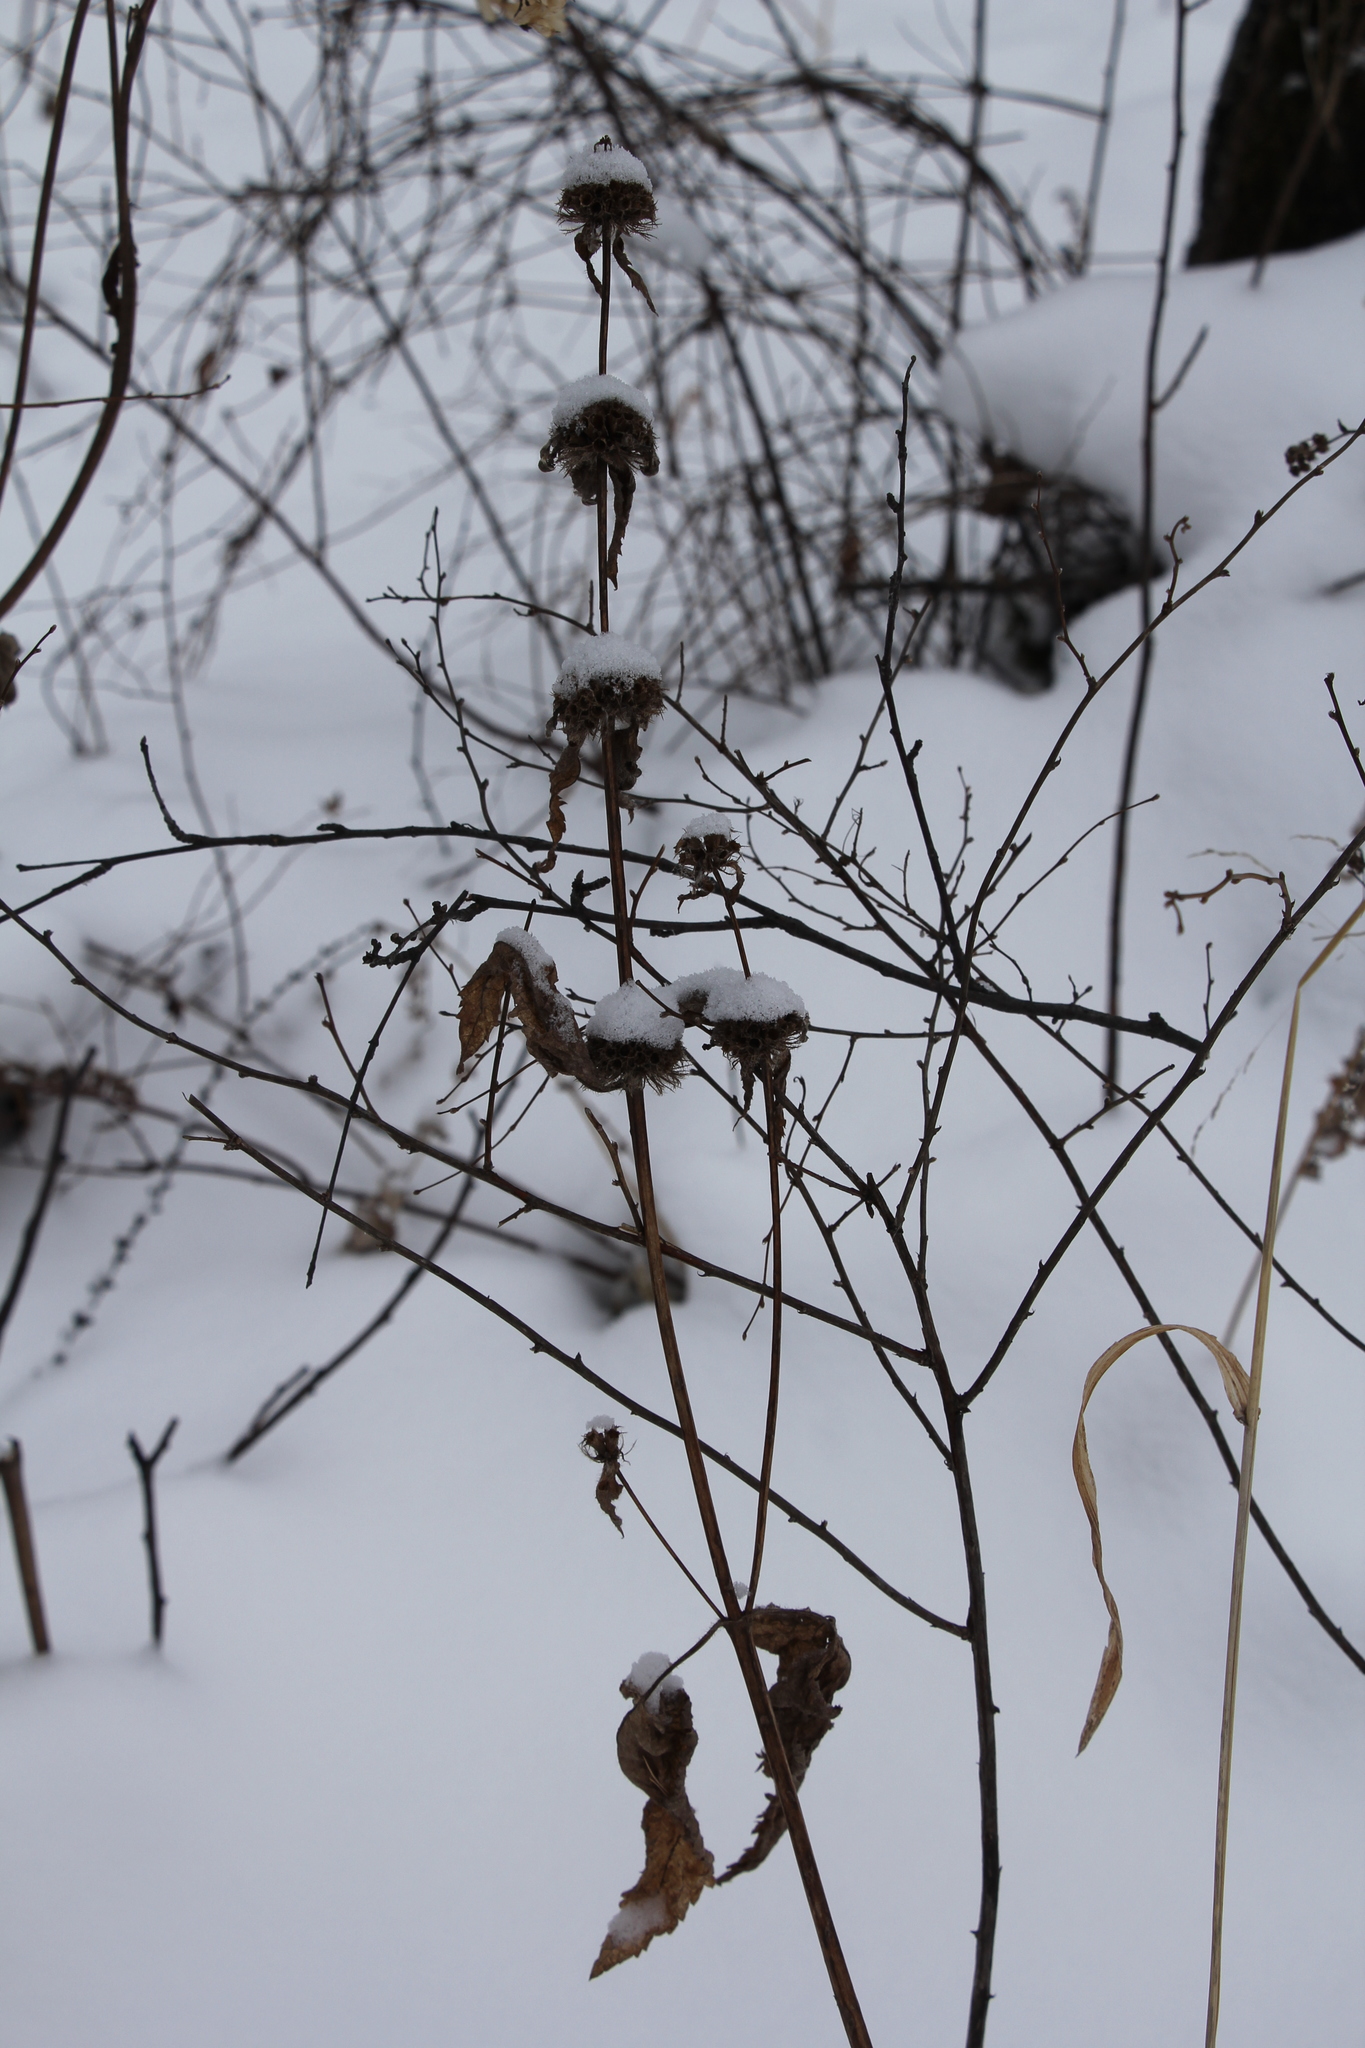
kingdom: Plantae
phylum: Tracheophyta
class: Magnoliopsida
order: Lamiales
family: Lamiaceae
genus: Phlomoides
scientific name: Phlomoides tuberosa
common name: Tuberous jerusalem sage
